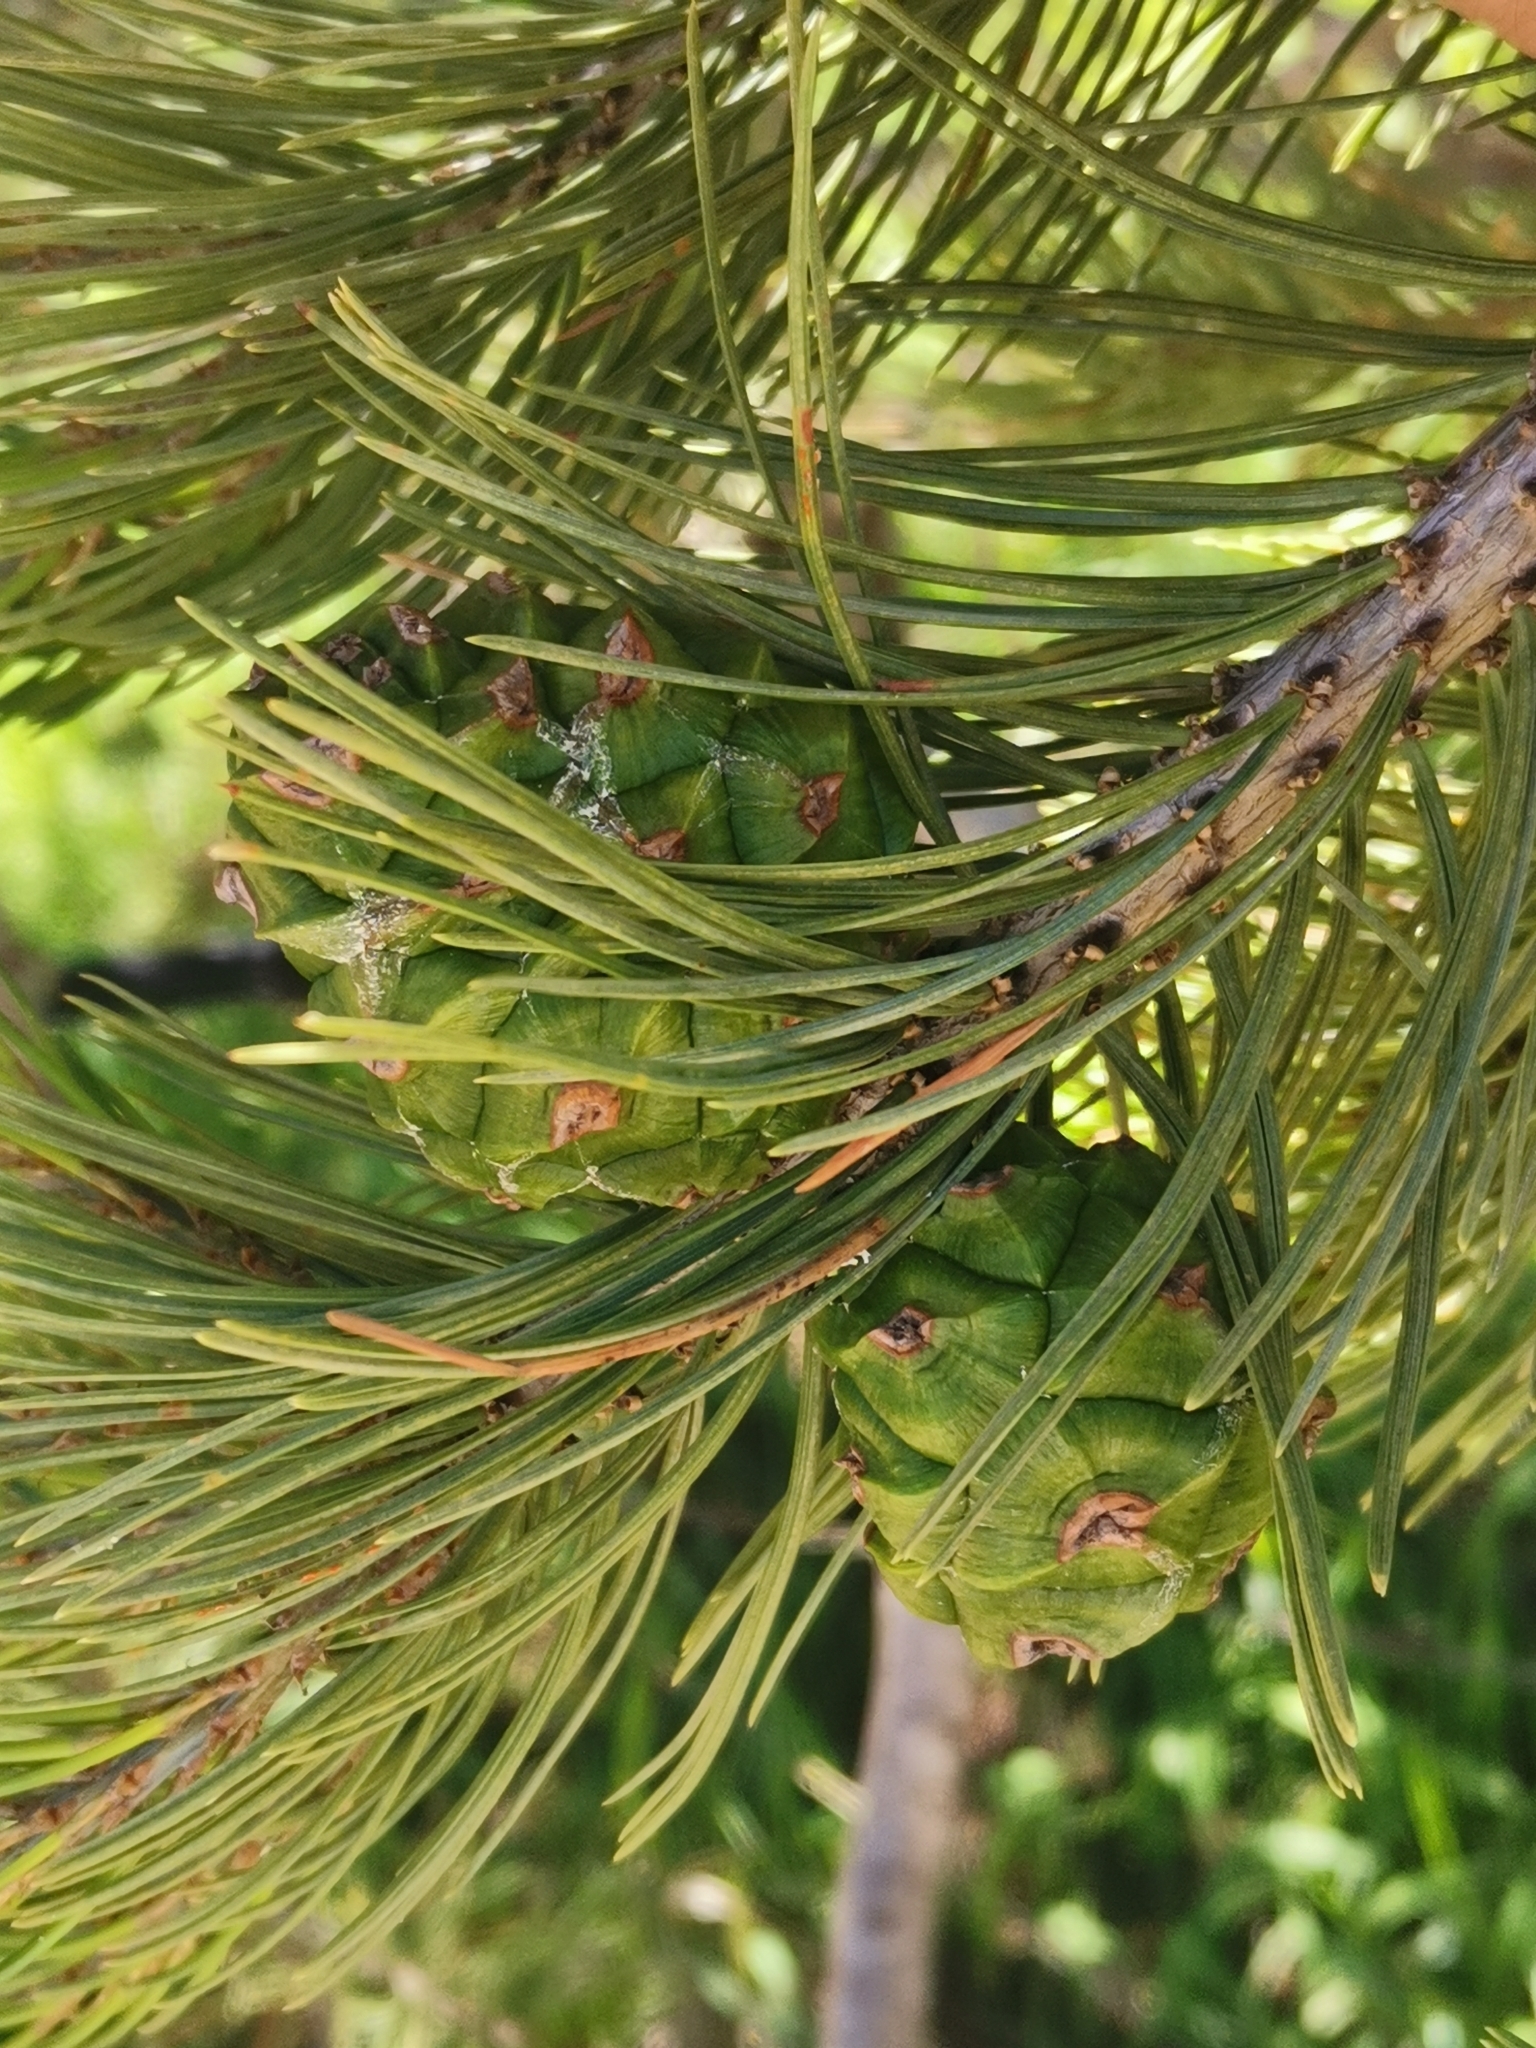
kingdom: Plantae
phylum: Tracheophyta
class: Pinopsida
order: Pinales
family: Pinaceae
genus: Pinus
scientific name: Pinus cembroides
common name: Mexican nut pine
